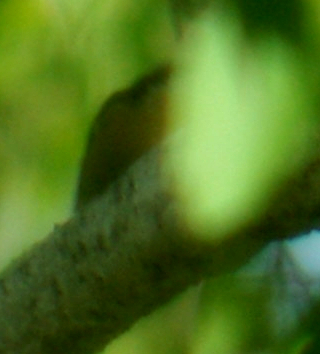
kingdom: Animalia
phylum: Chordata
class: Aves
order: Passeriformes
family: Sittidae
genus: Sitta
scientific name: Sitta canadensis
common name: Red-breasted nuthatch
